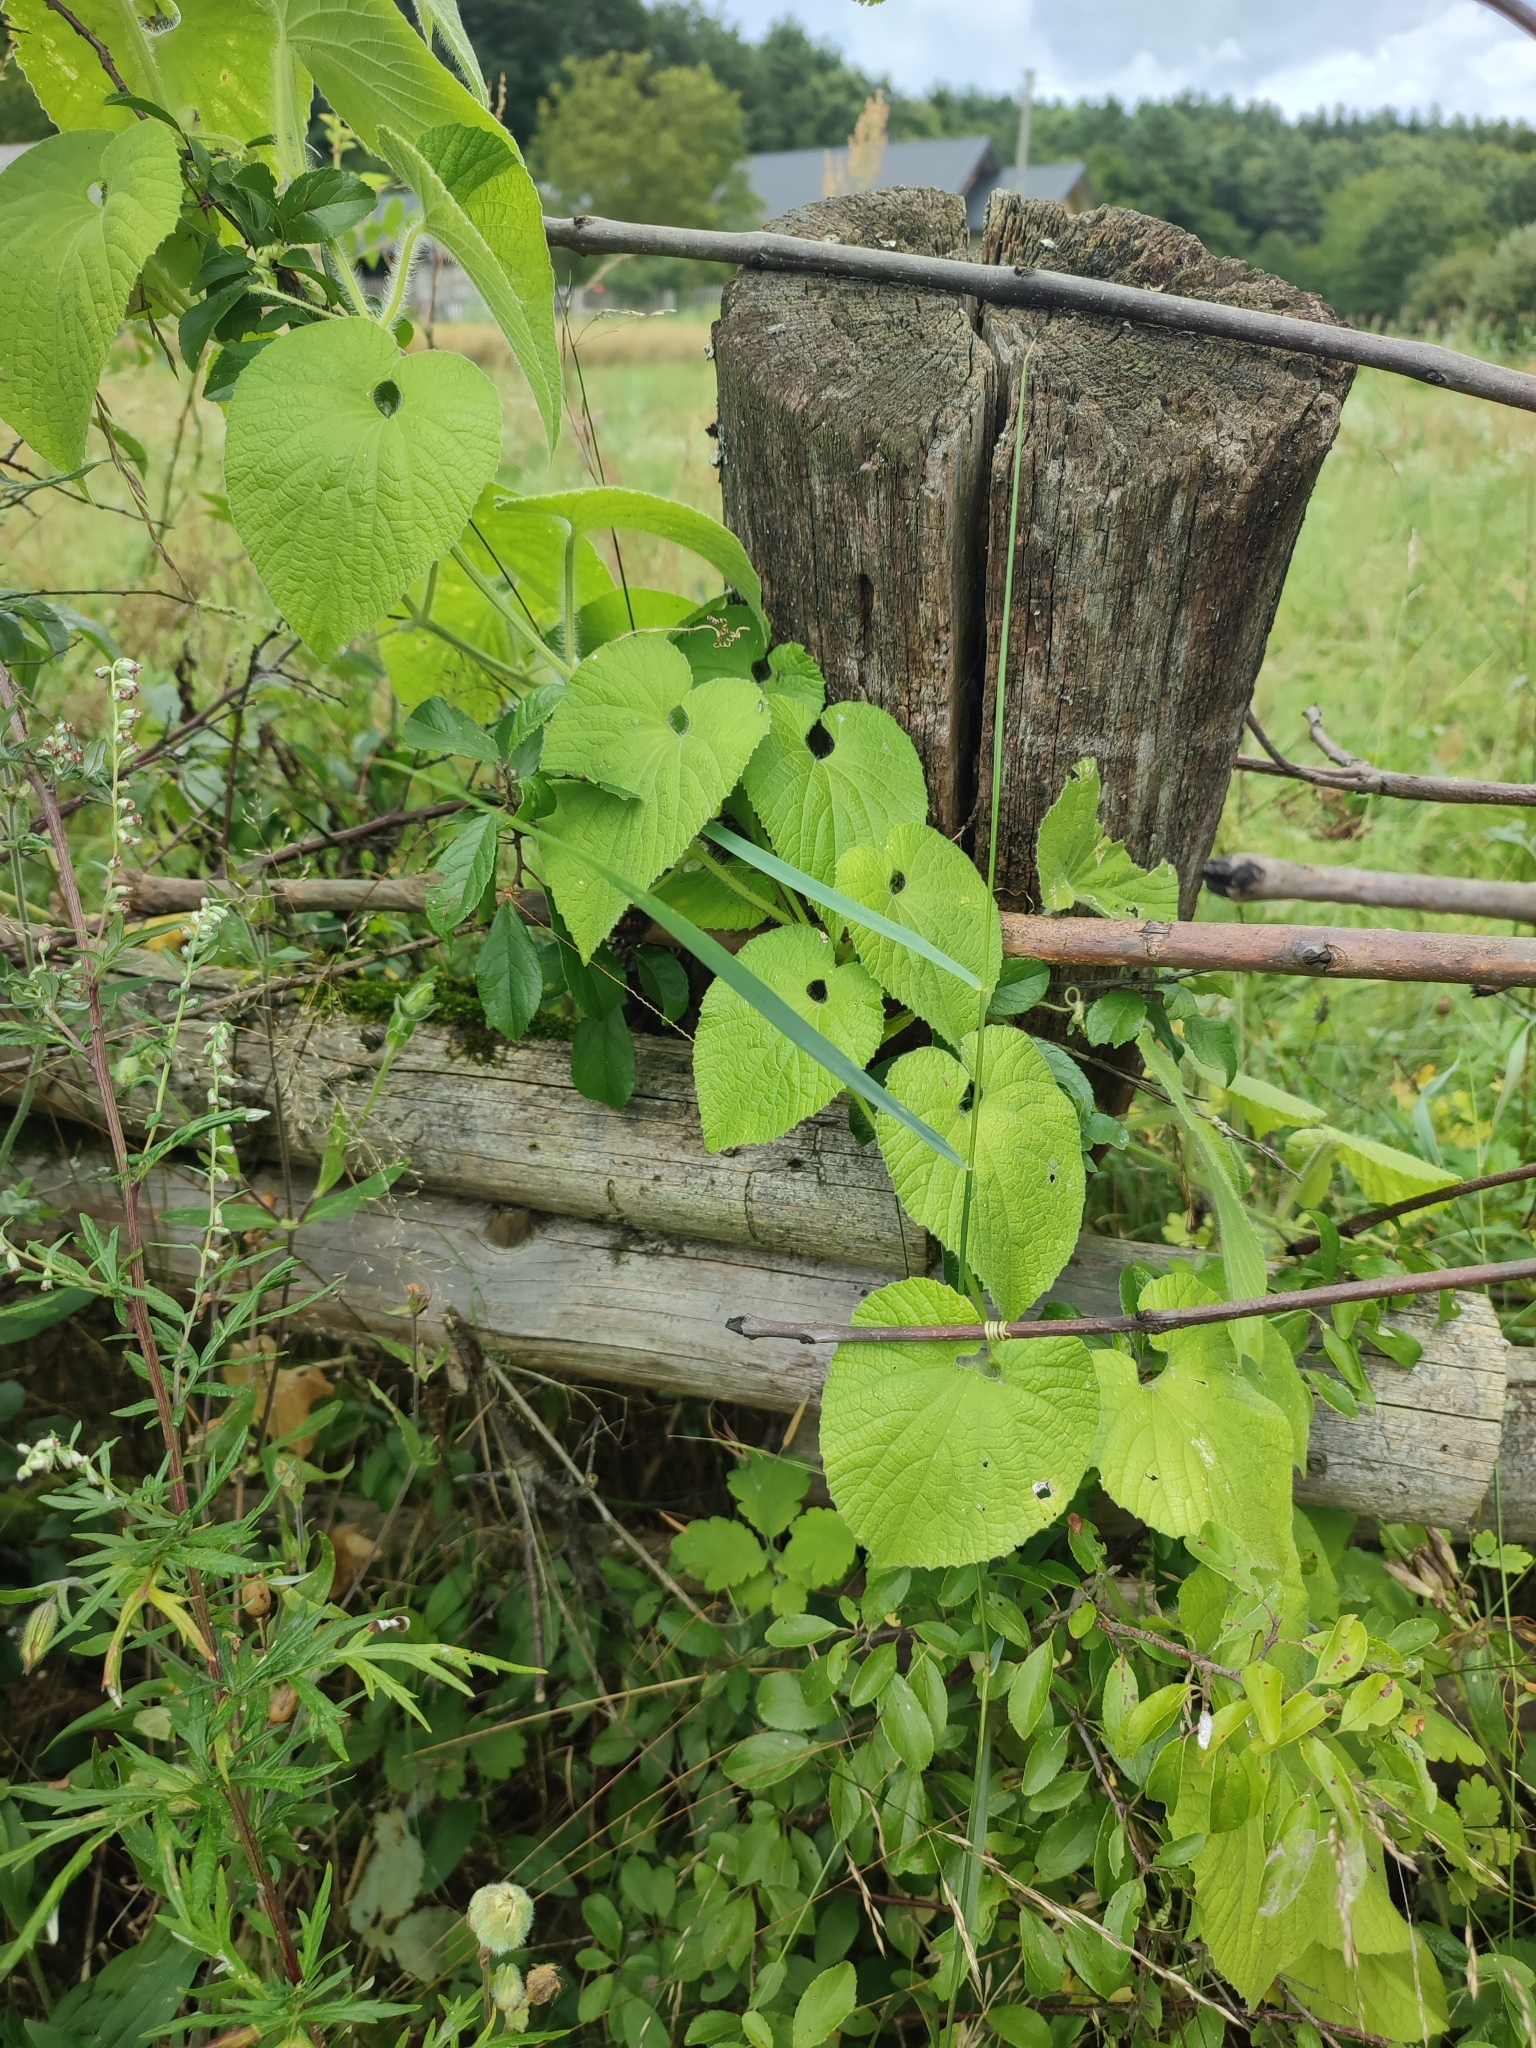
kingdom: Plantae
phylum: Tracheophyta
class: Magnoliopsida
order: Cucurbitales
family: Cucurbitaceae
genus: Thladiantha
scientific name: Thladiantha dubia
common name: Manchu tubergourd
